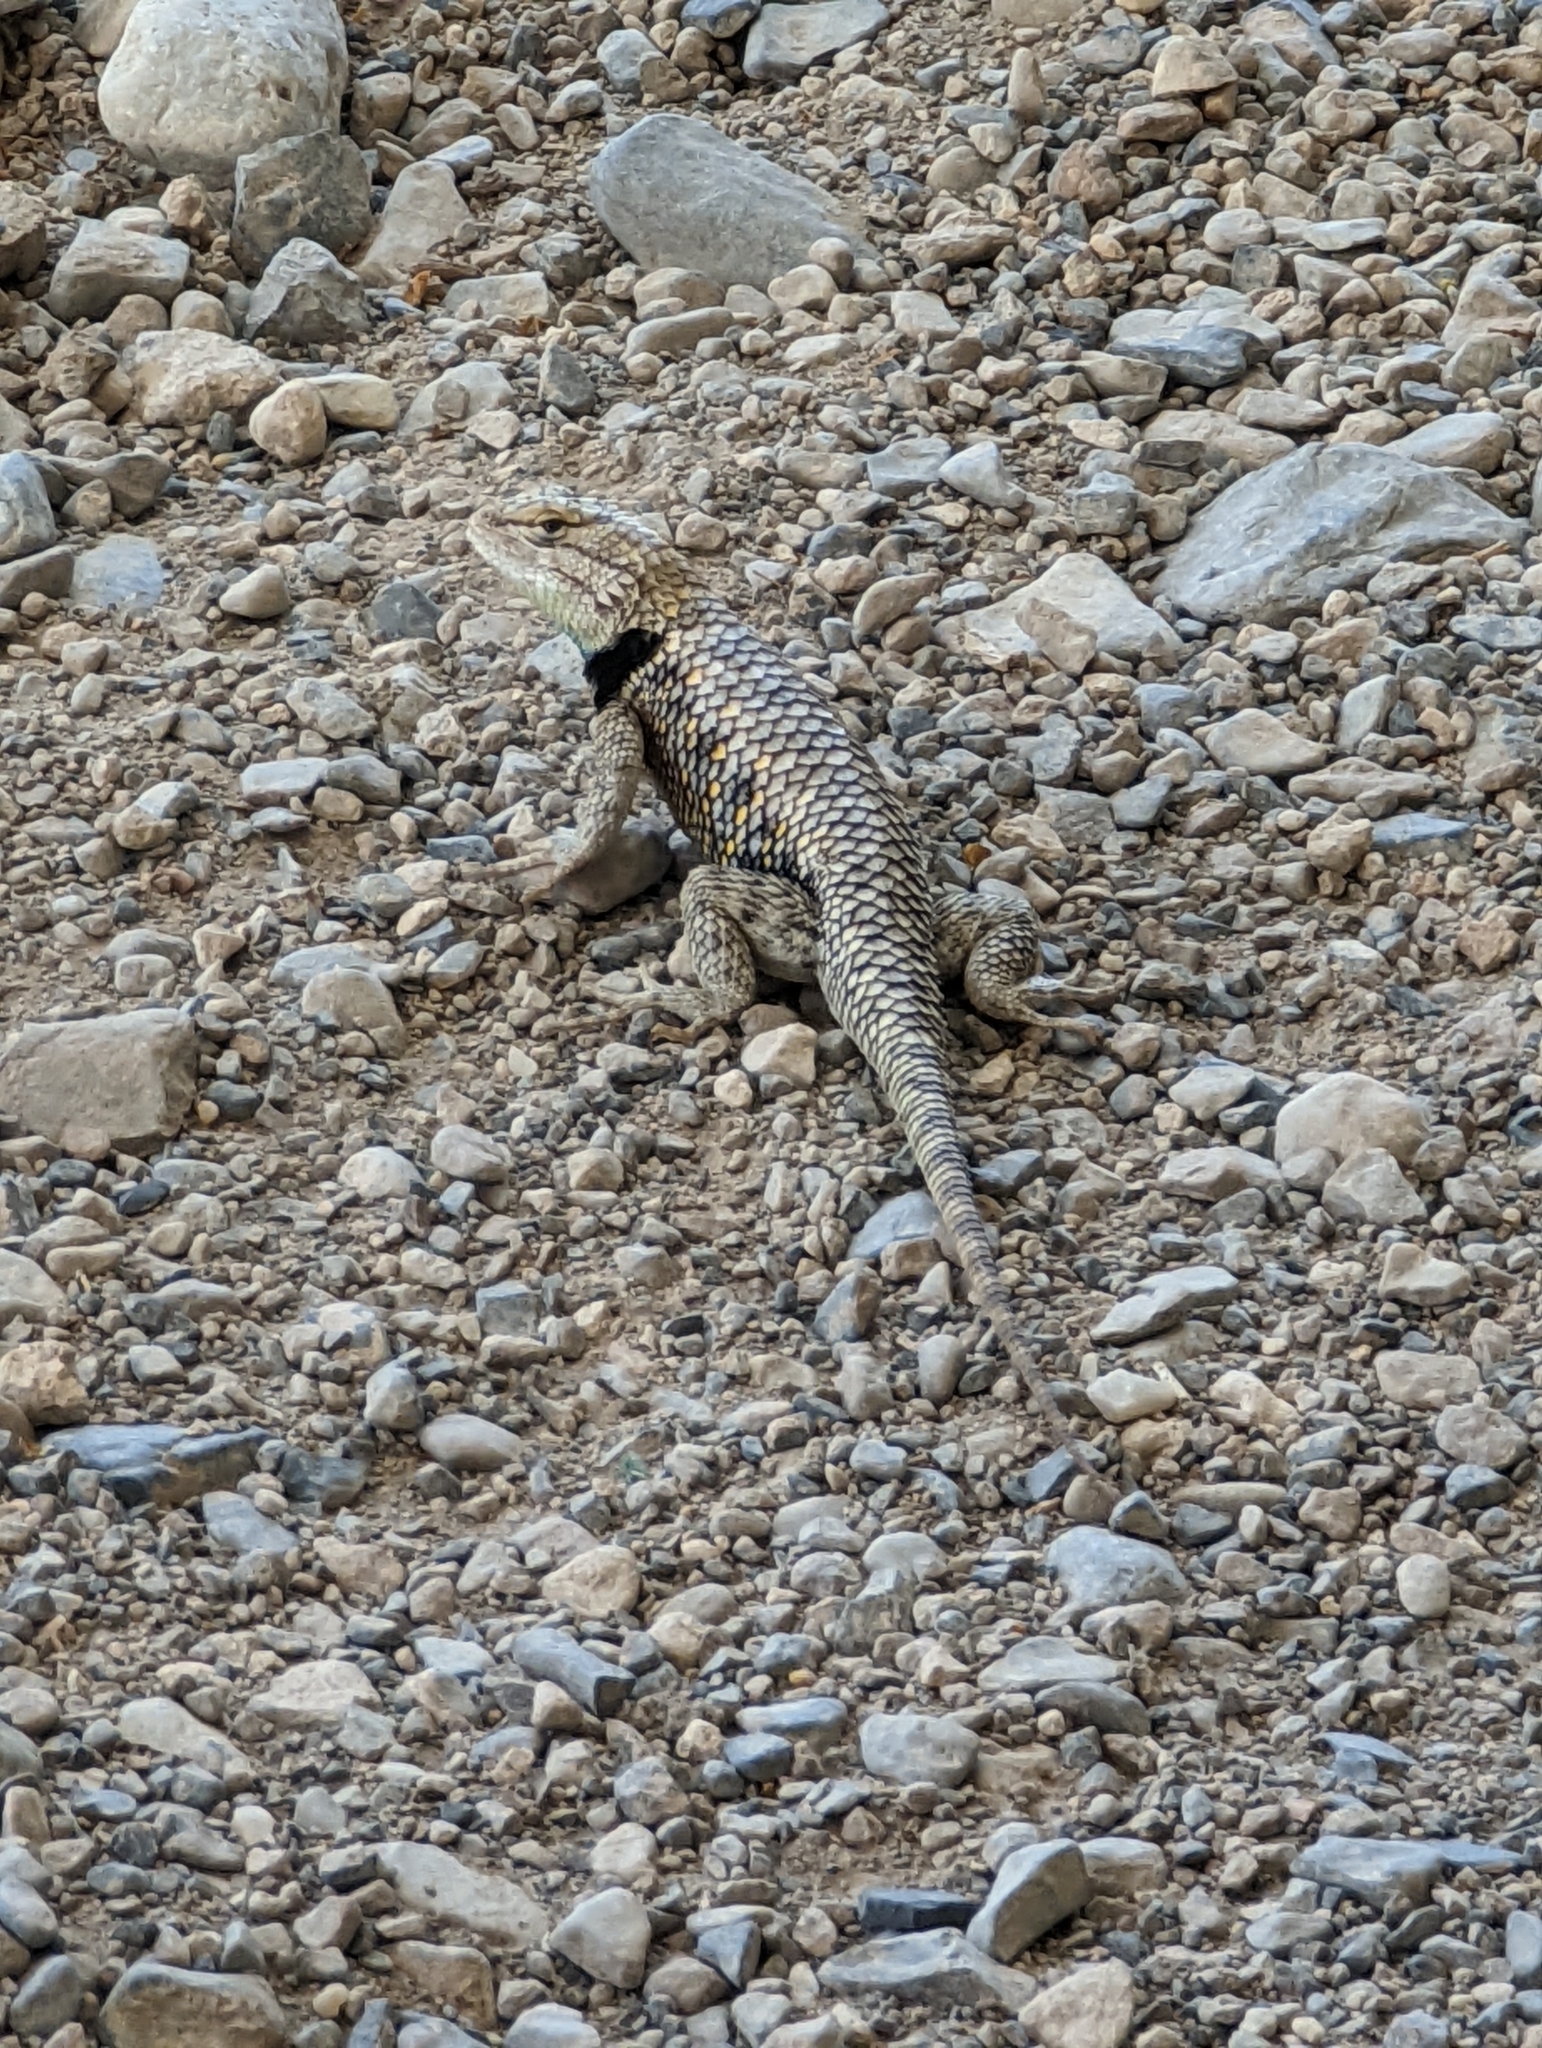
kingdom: Animalia
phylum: Chordata
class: Squamata
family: Phrynosomatidae
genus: Sceloporus
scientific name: Sceloporus uniformis
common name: Yellow-backed spiny lizard
